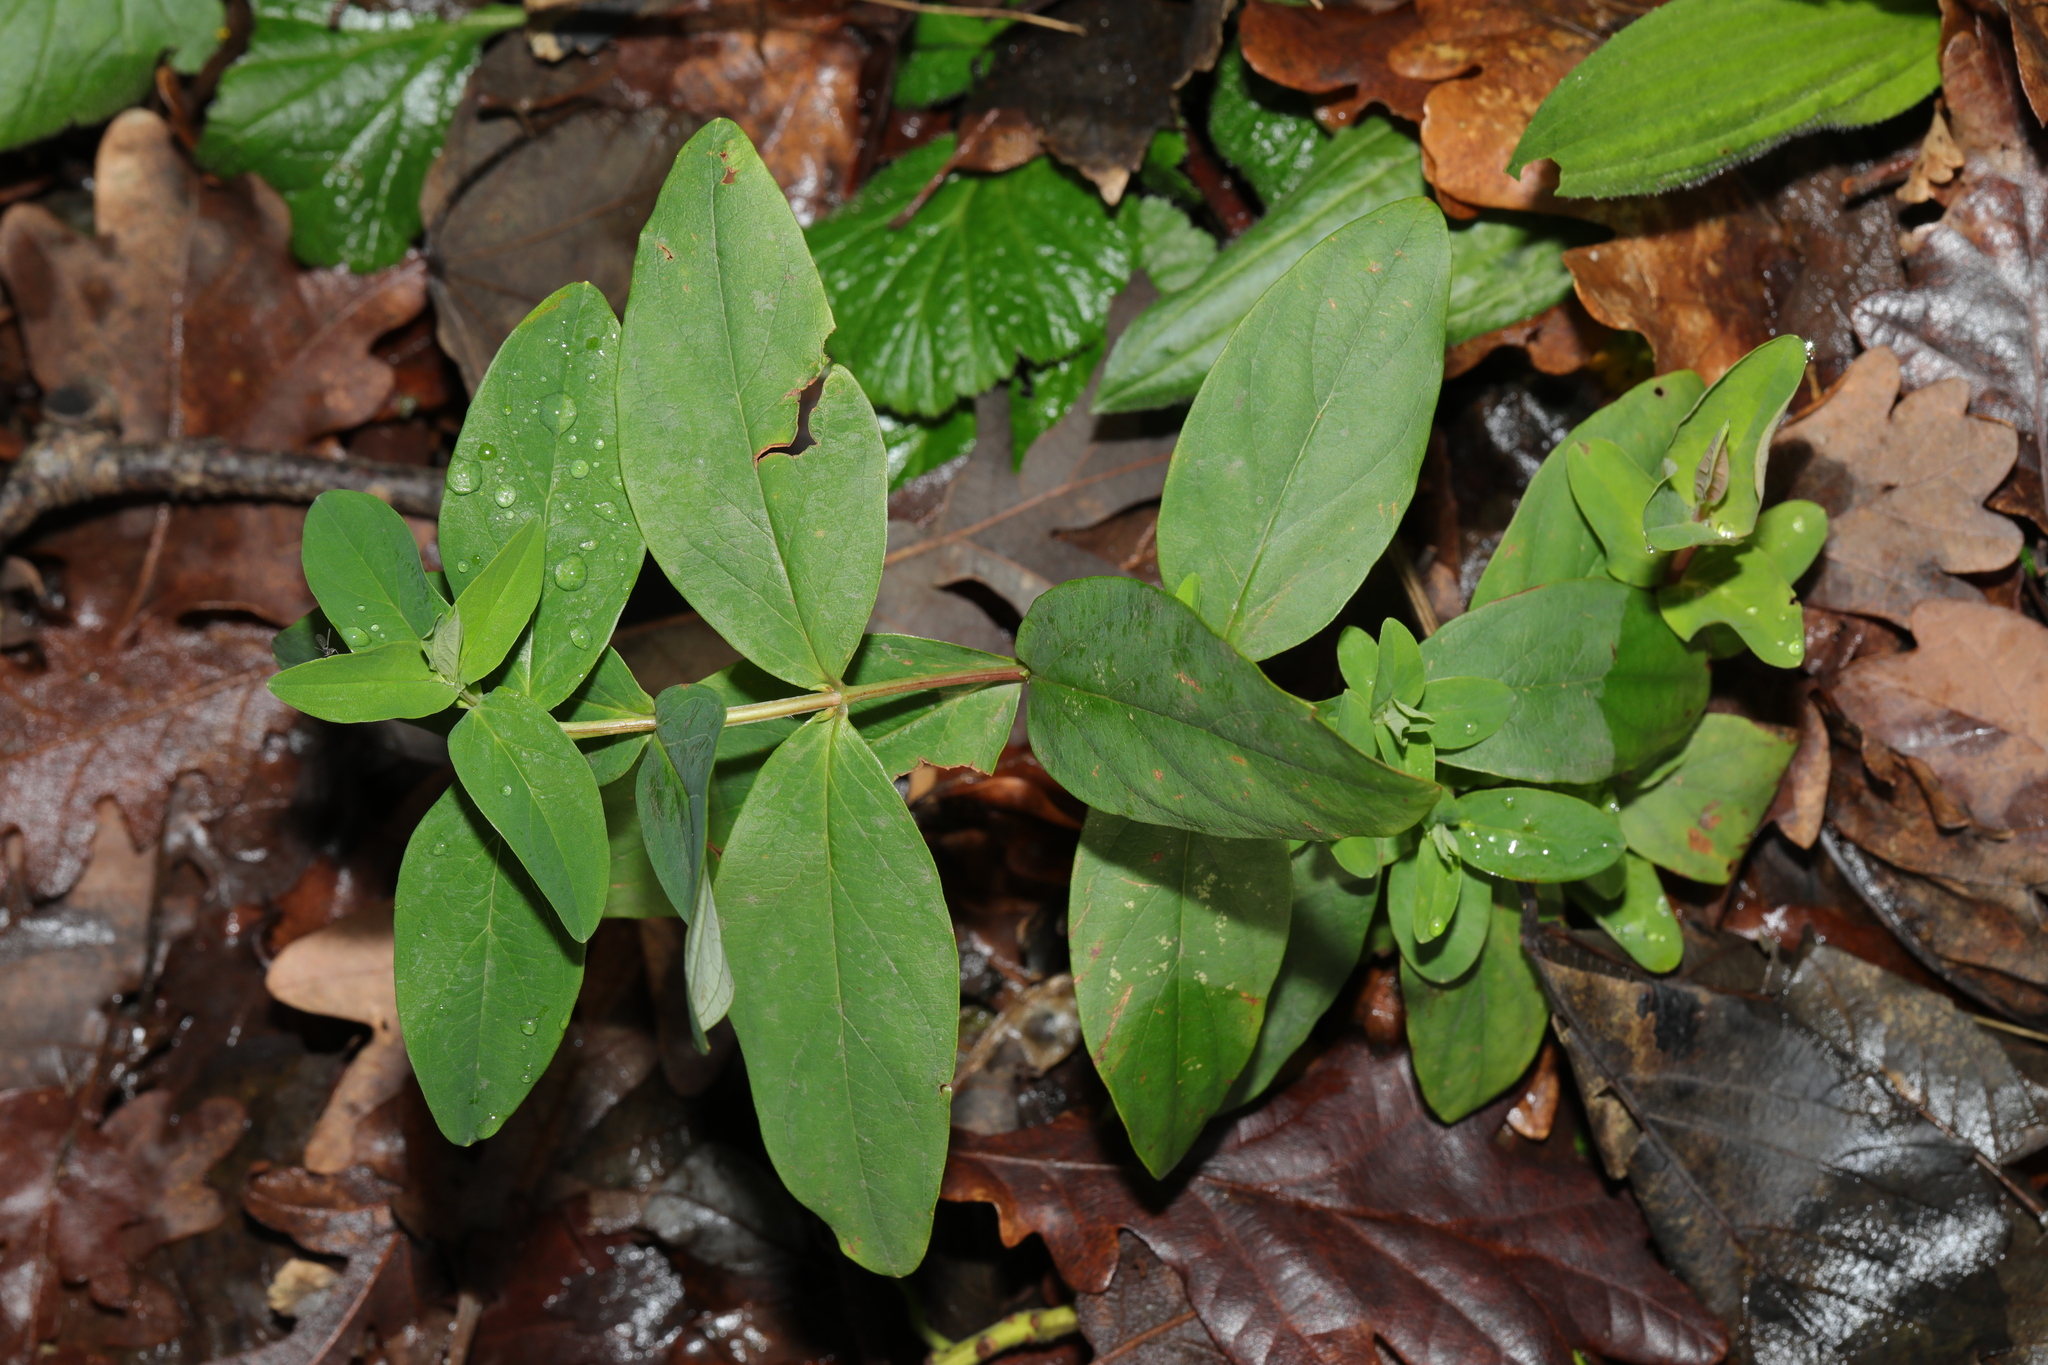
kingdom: Plantae
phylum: Tracheophyta
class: Magnoliopsida
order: Malpighiales
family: Hypericaceae
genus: Hypericum
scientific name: Hypericum androsaemum
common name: Sweet-amber
